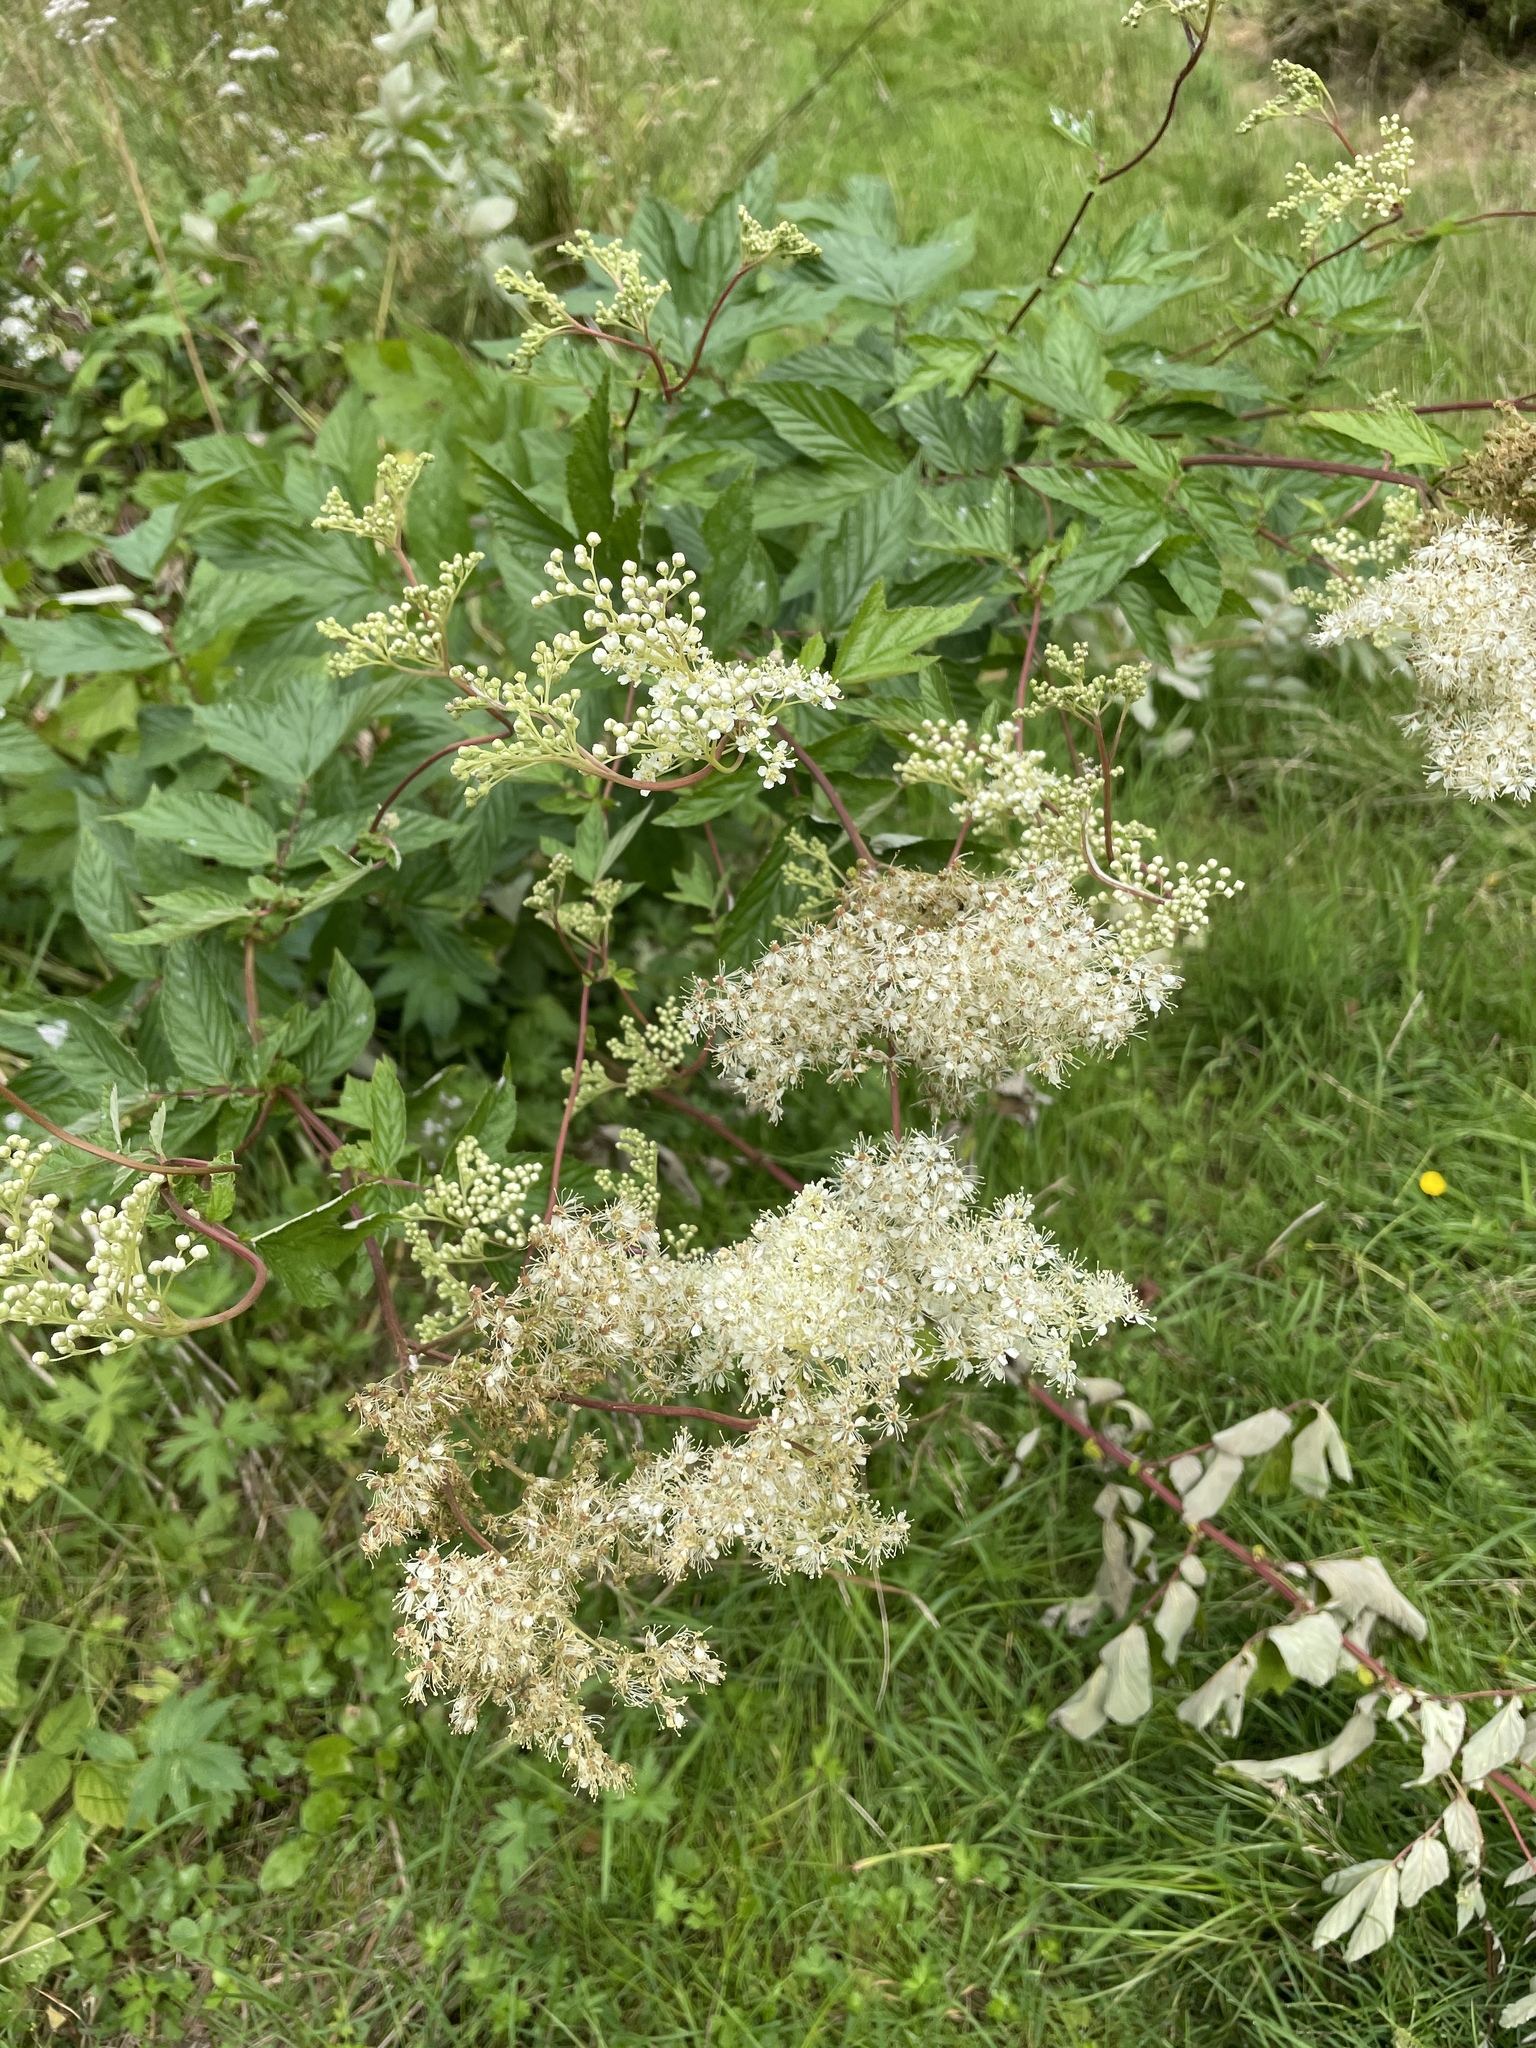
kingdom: Plantae
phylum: Tracheophyta
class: Magnoliopsida
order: Rosales
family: Rosaceae
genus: Filipendula
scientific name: Filipendula ulmaria
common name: Meadowsweet
